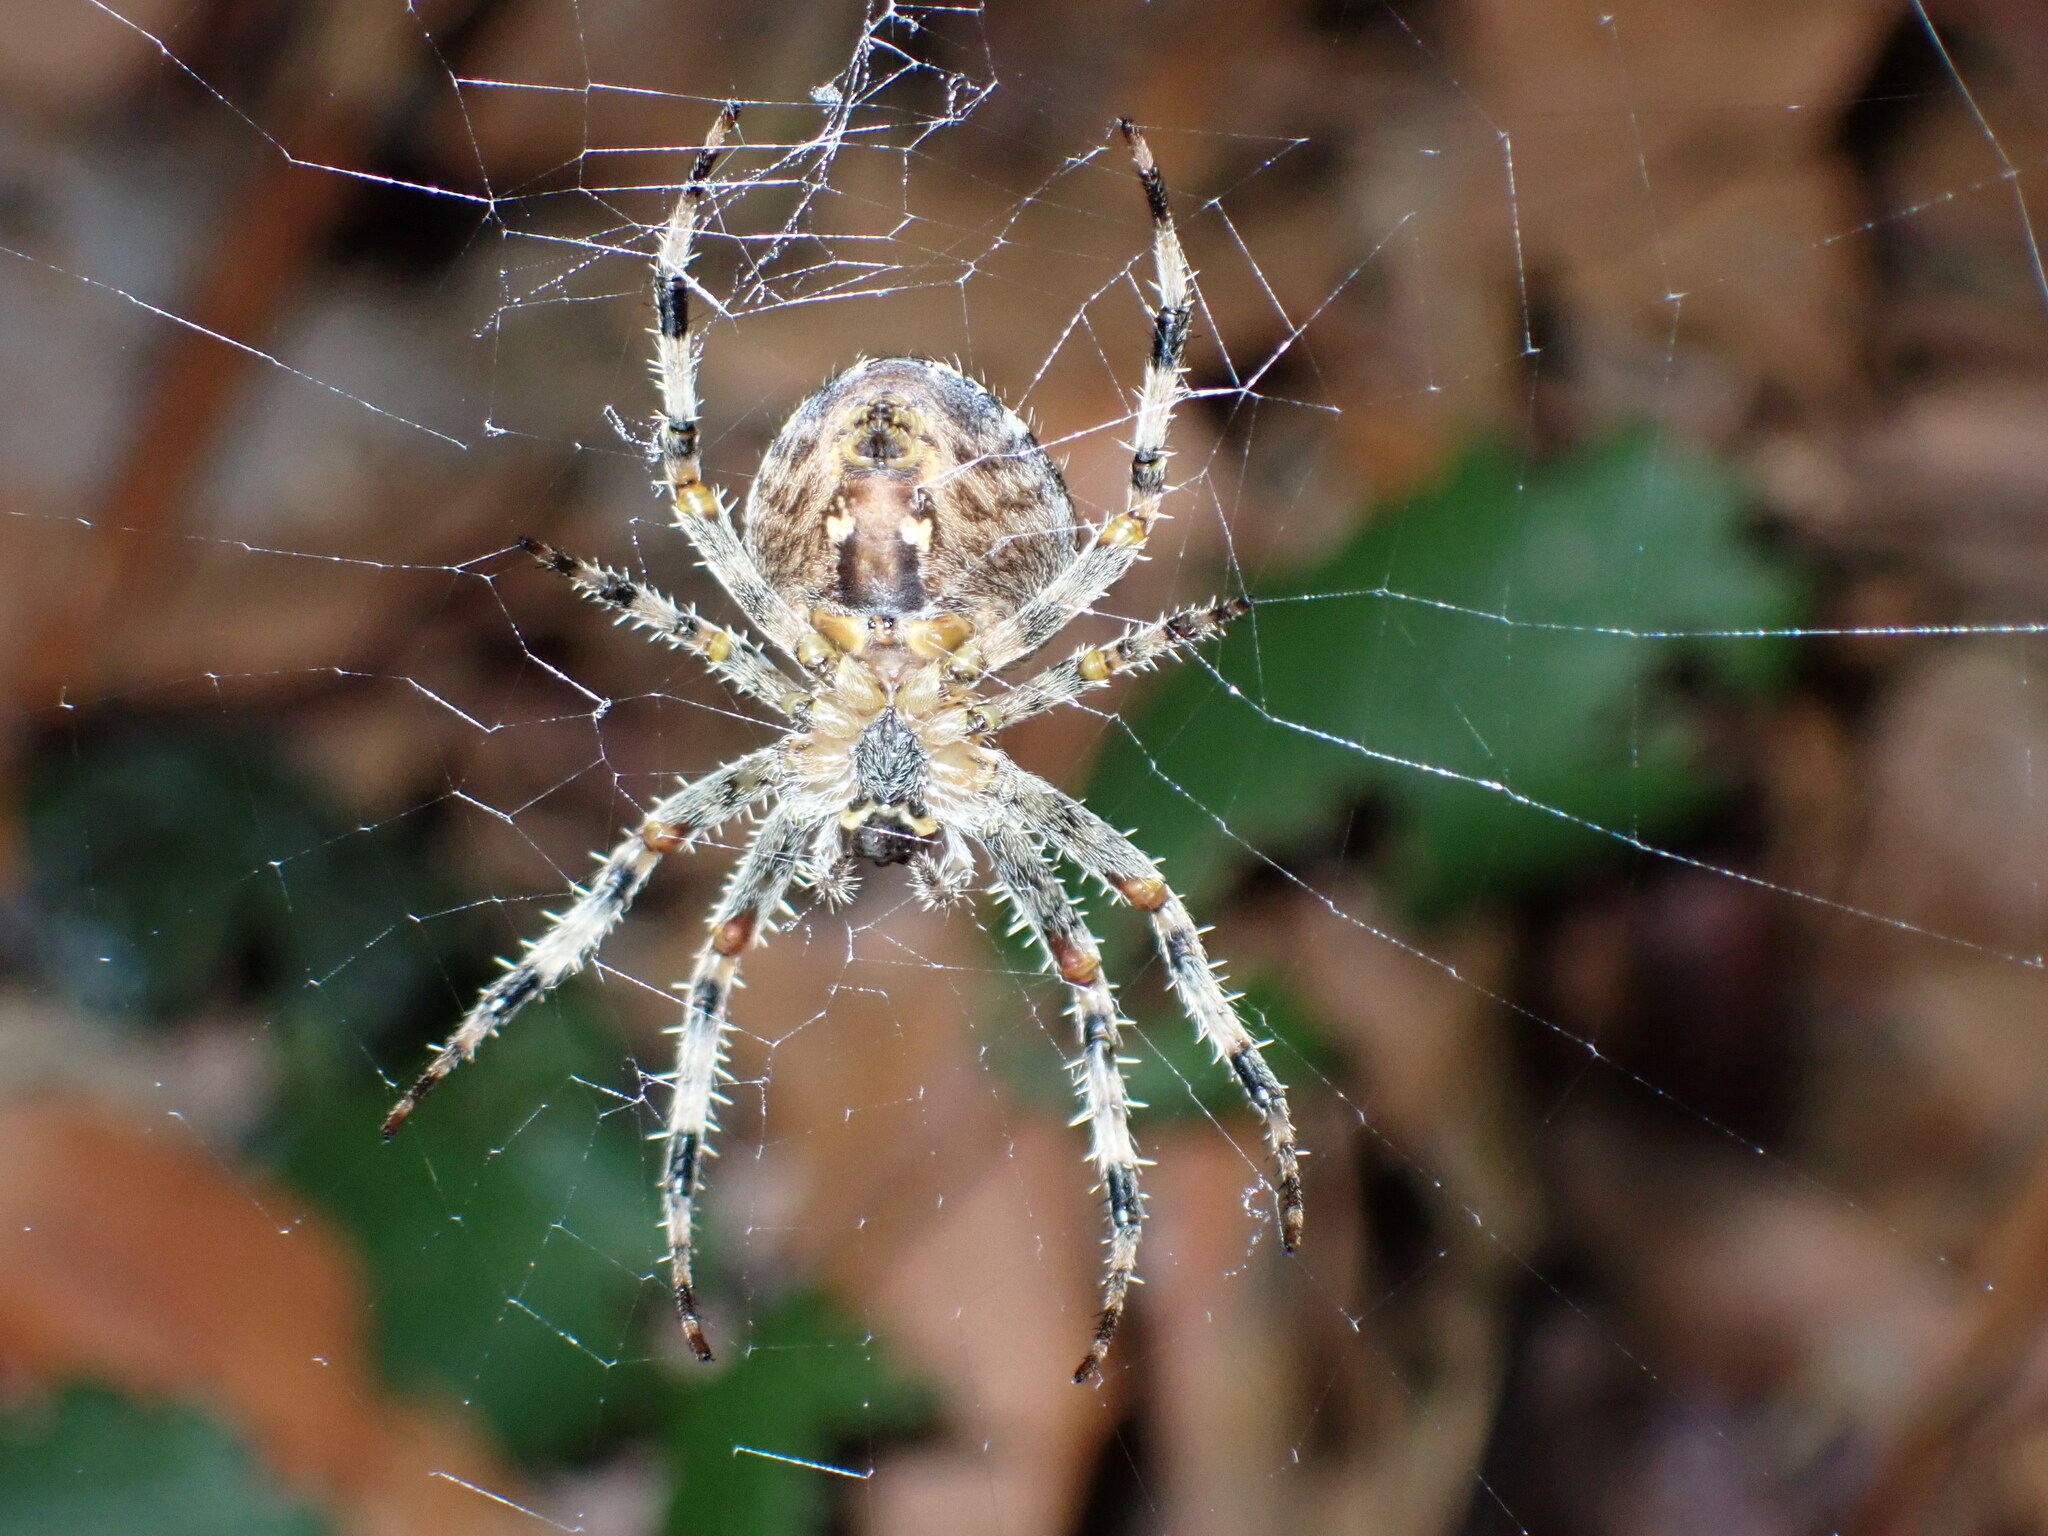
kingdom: Animalia
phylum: Arthropoda
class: Arachnida
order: Araneae
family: Araneidae
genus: Araneus
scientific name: Araneus diadematus
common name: Cross orbweaver
